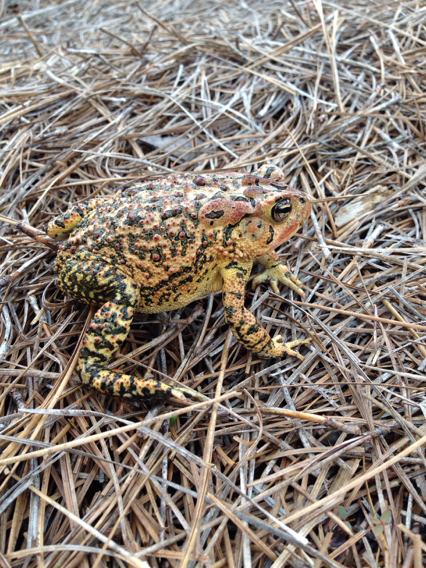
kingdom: Animalia
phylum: Chordata
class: Amphibia
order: Anura
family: Bufonidae
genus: Anaxyrus
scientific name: Anaxyrus terrestris
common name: Southern toad
